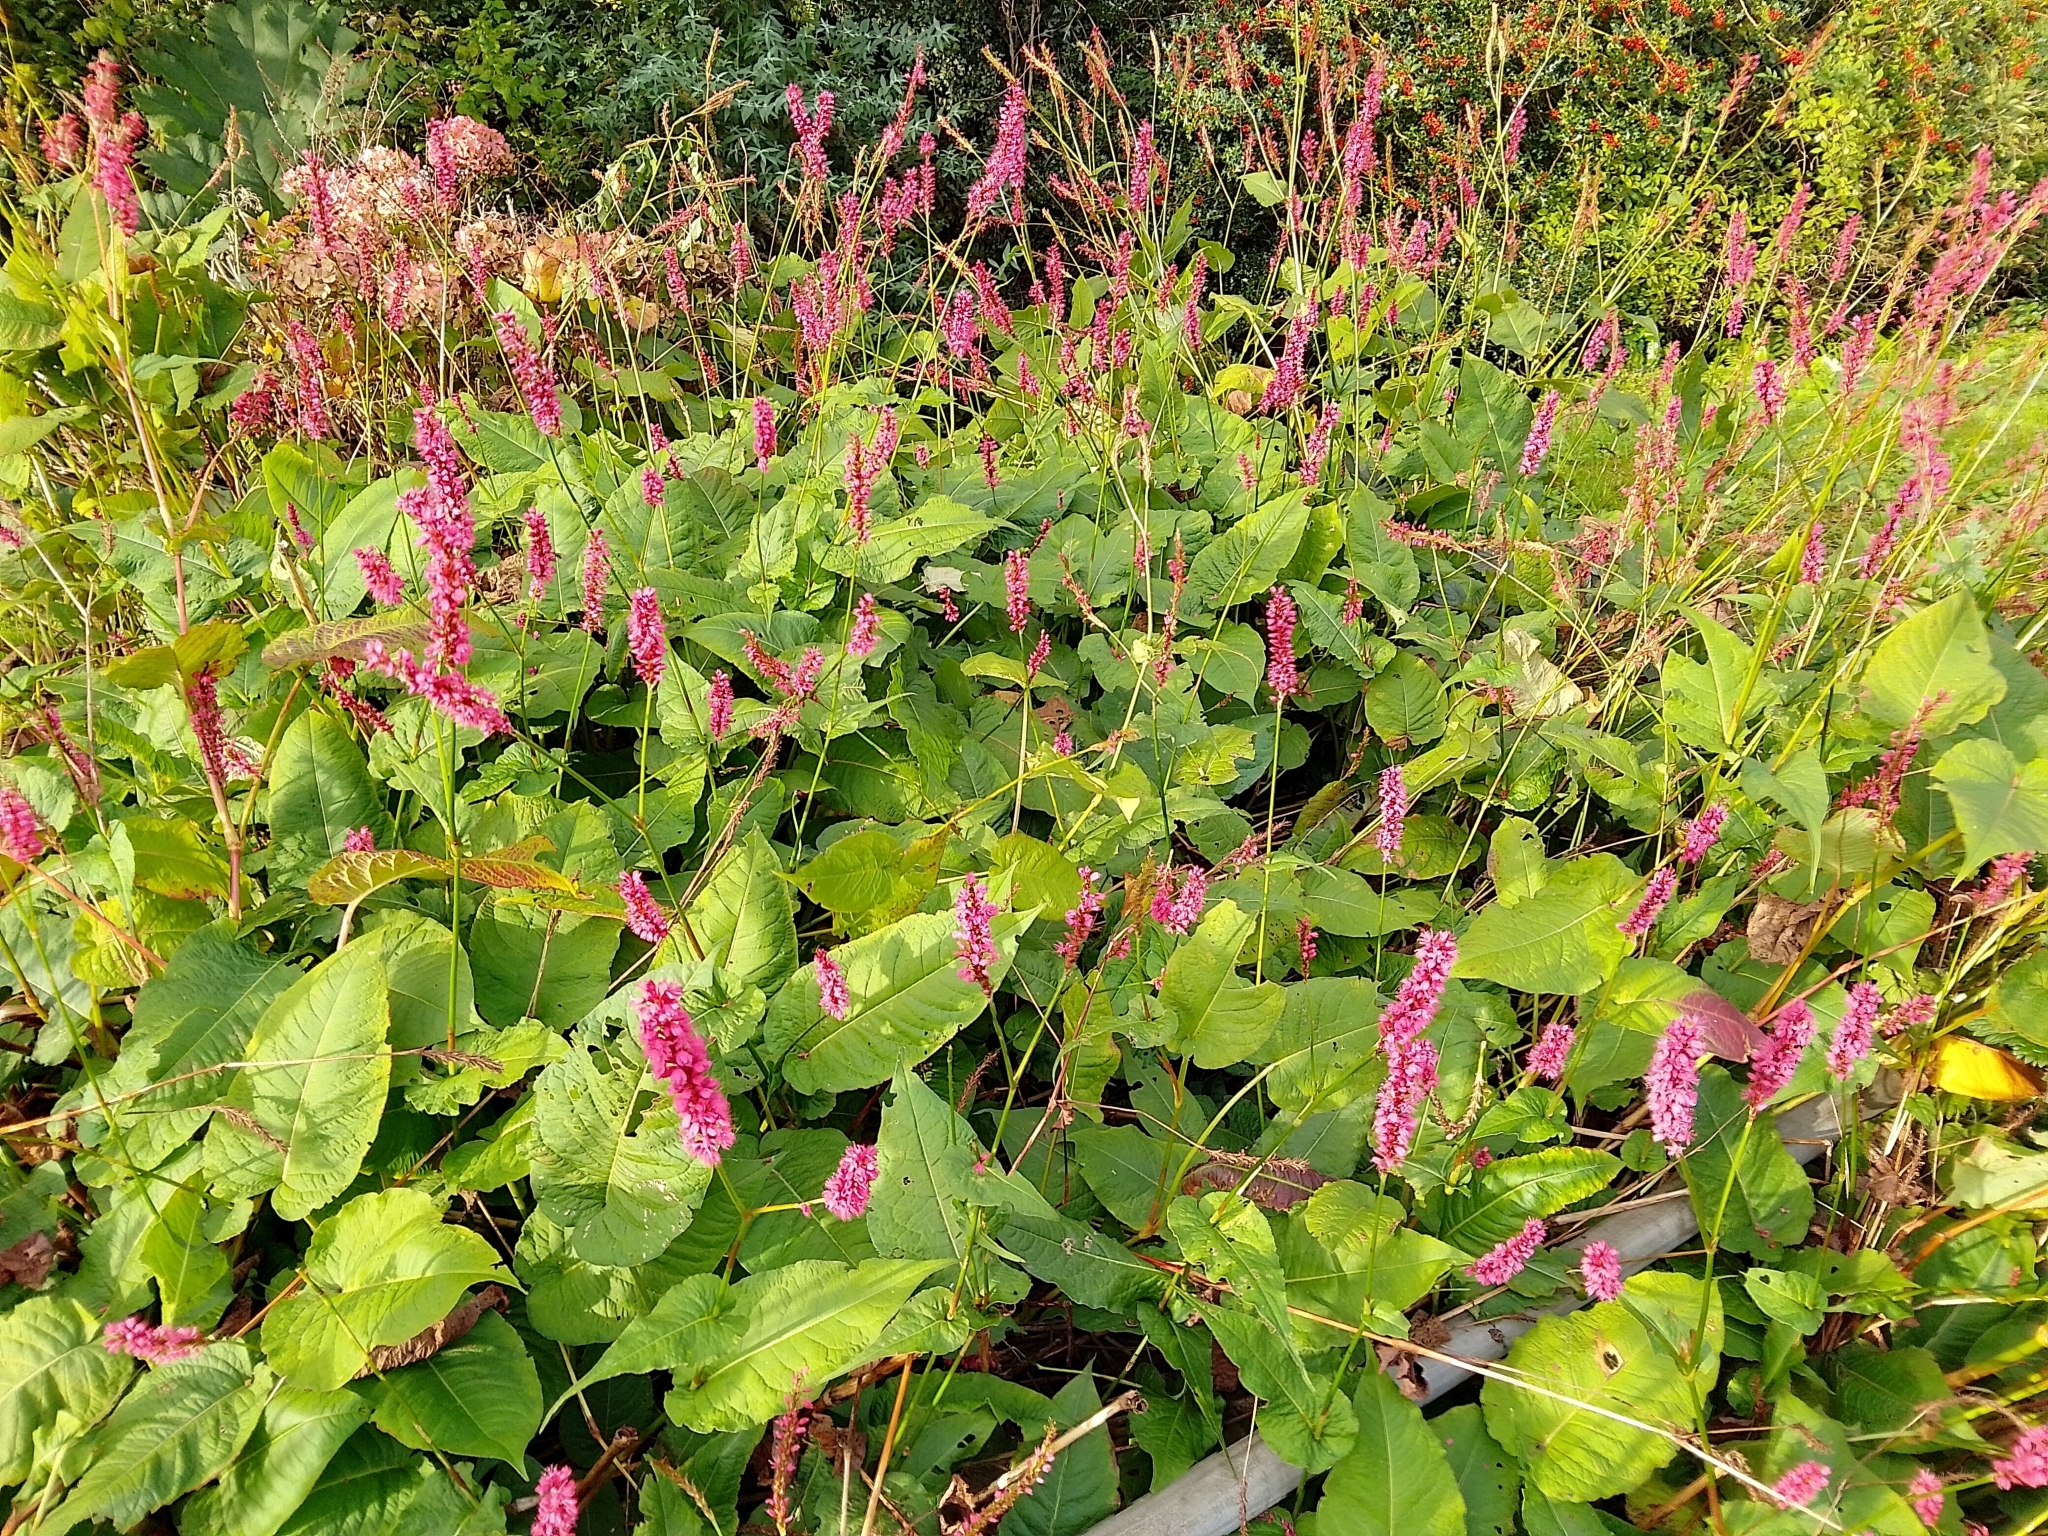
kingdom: Plantae
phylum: Tracheophyta
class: Magnoliopsida
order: Caryophyllales
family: Polygonaceae
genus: Bistorta
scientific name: Bistorta amplexicaulis
